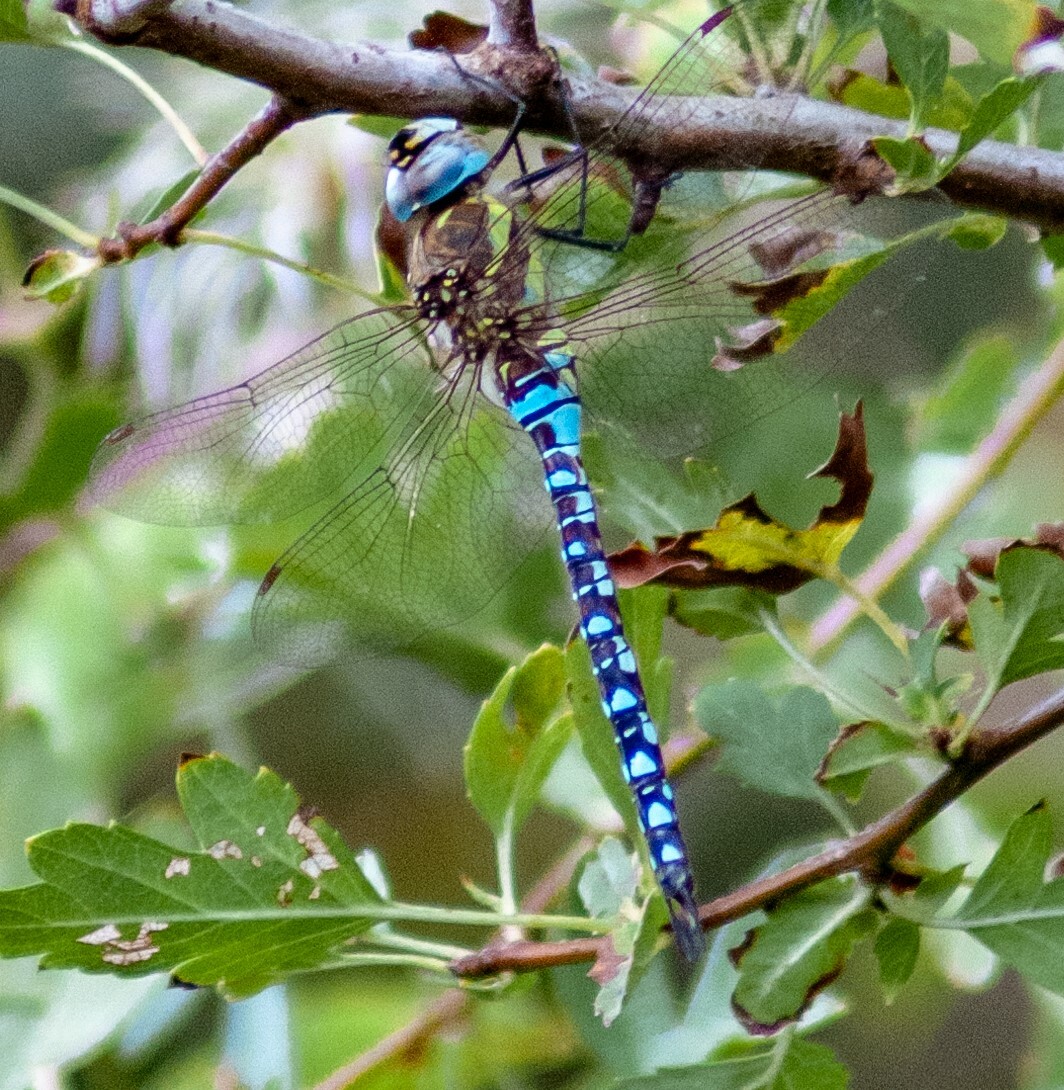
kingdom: Animalia
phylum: Arthropoda
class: Insecta
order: Odonata
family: Aeshnidae
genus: Aeshna
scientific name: Aeshna mixta
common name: Migrant hawker
